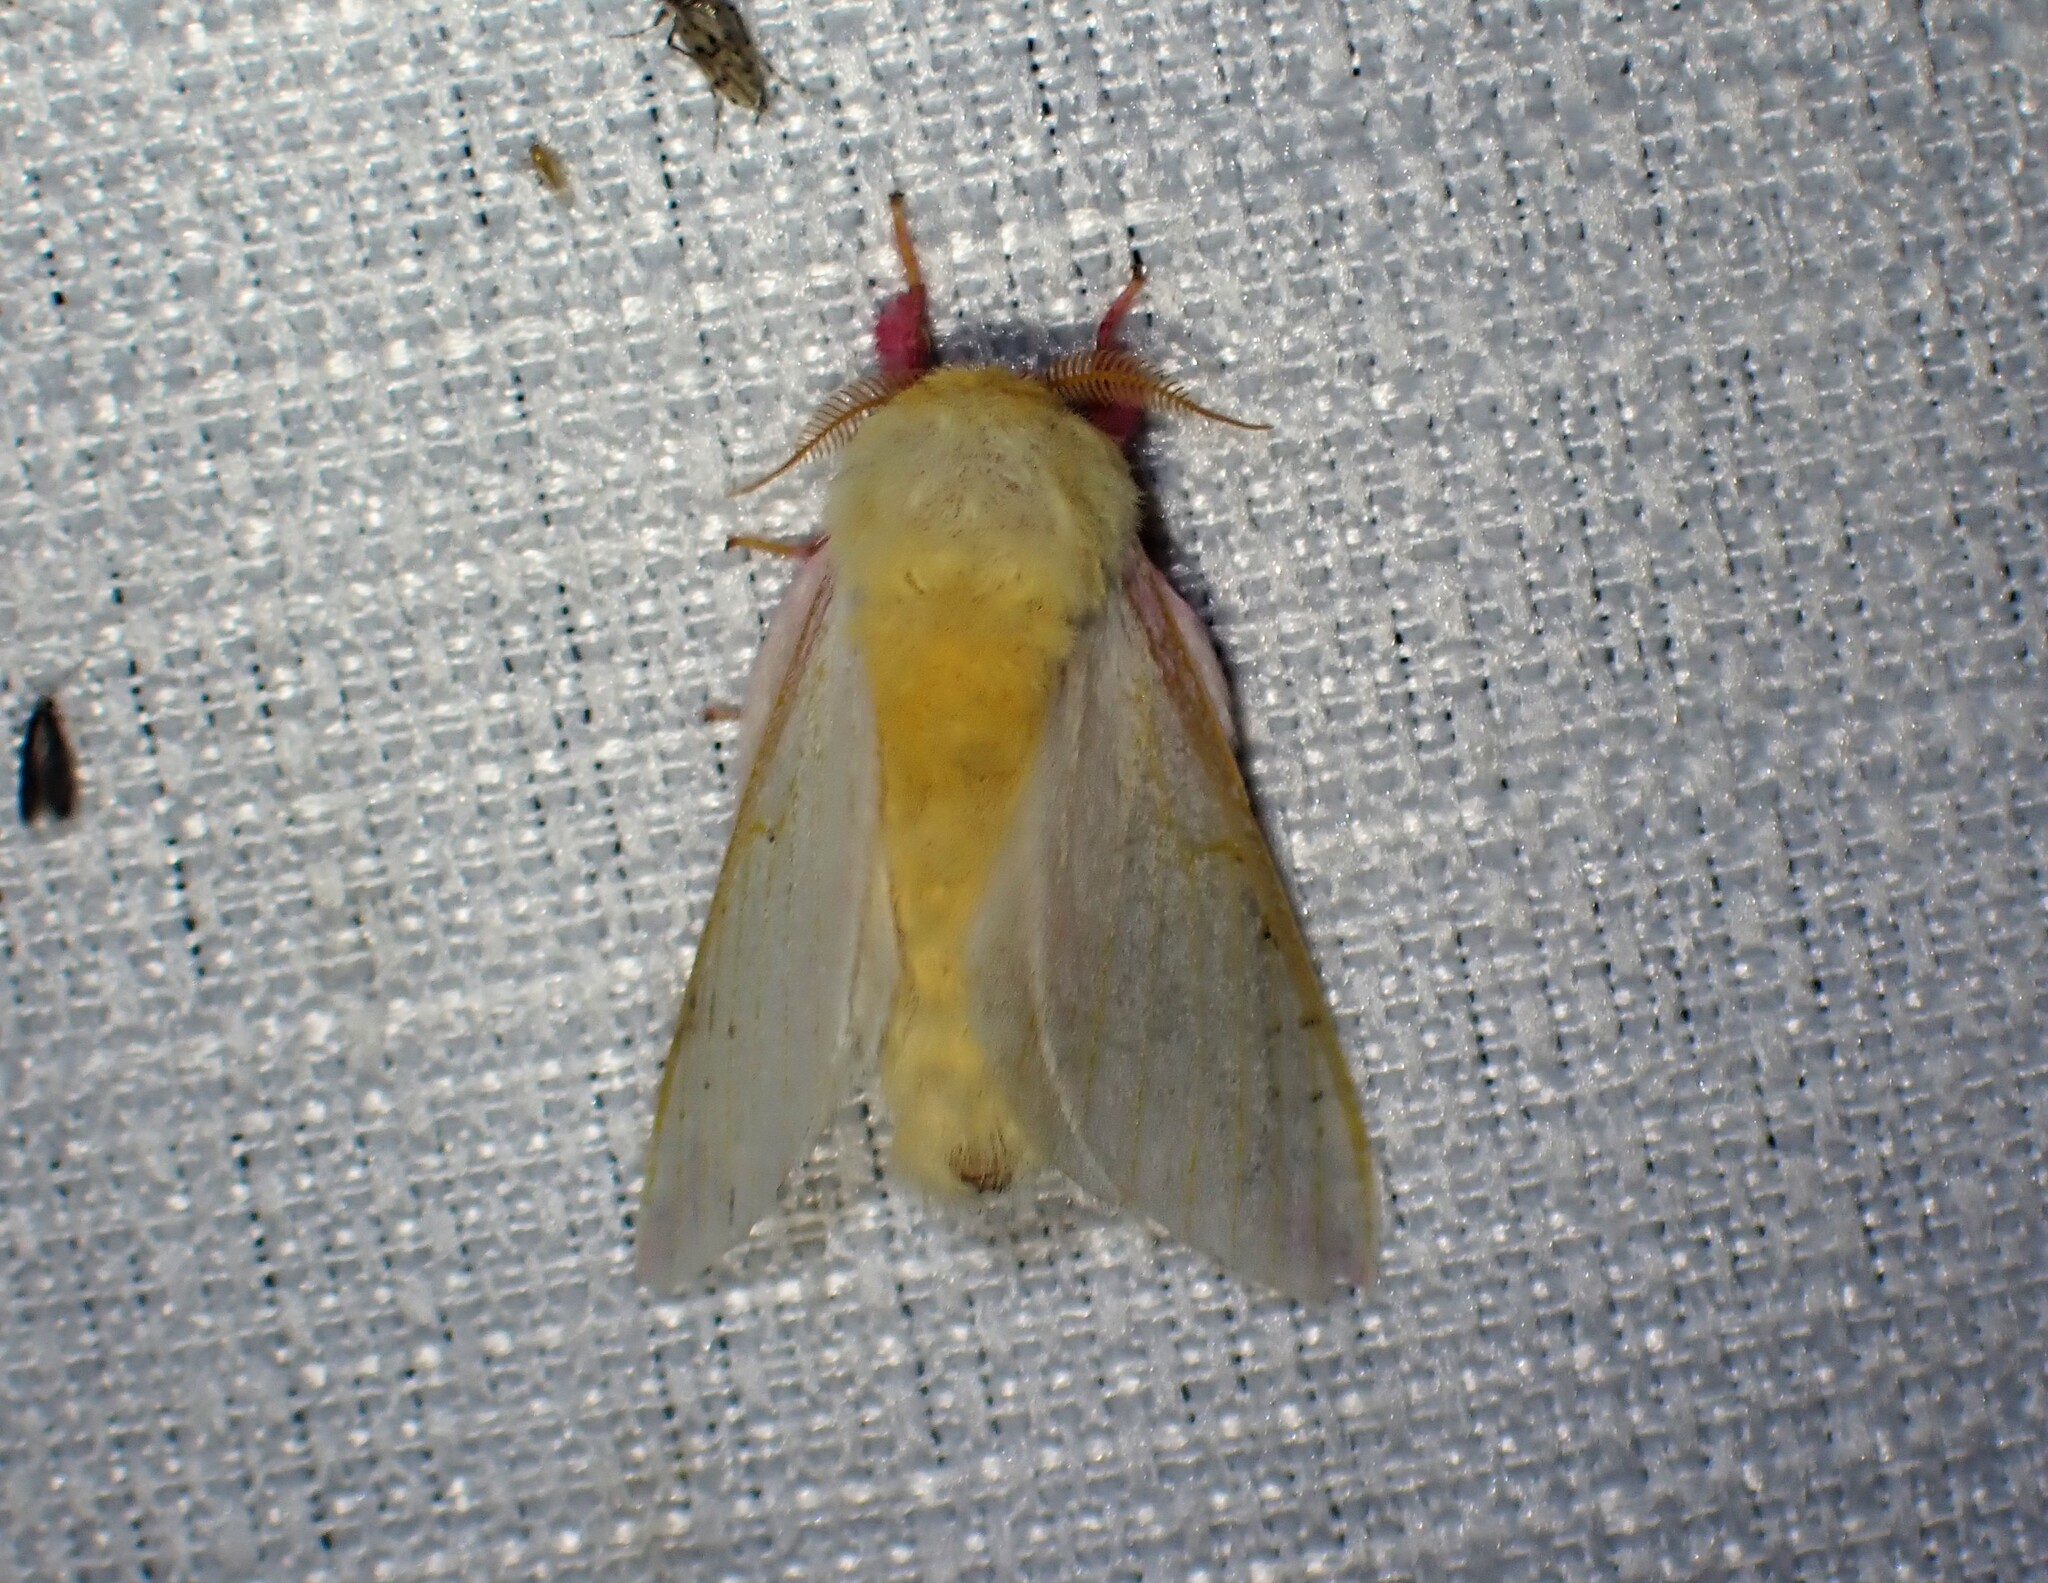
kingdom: Animalia
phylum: Arthropoda
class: Insecta
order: Lepidoptera
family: Saturniidae
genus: Dryocampa
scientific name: Dryocampa rubicunda
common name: Rosy maple moth
